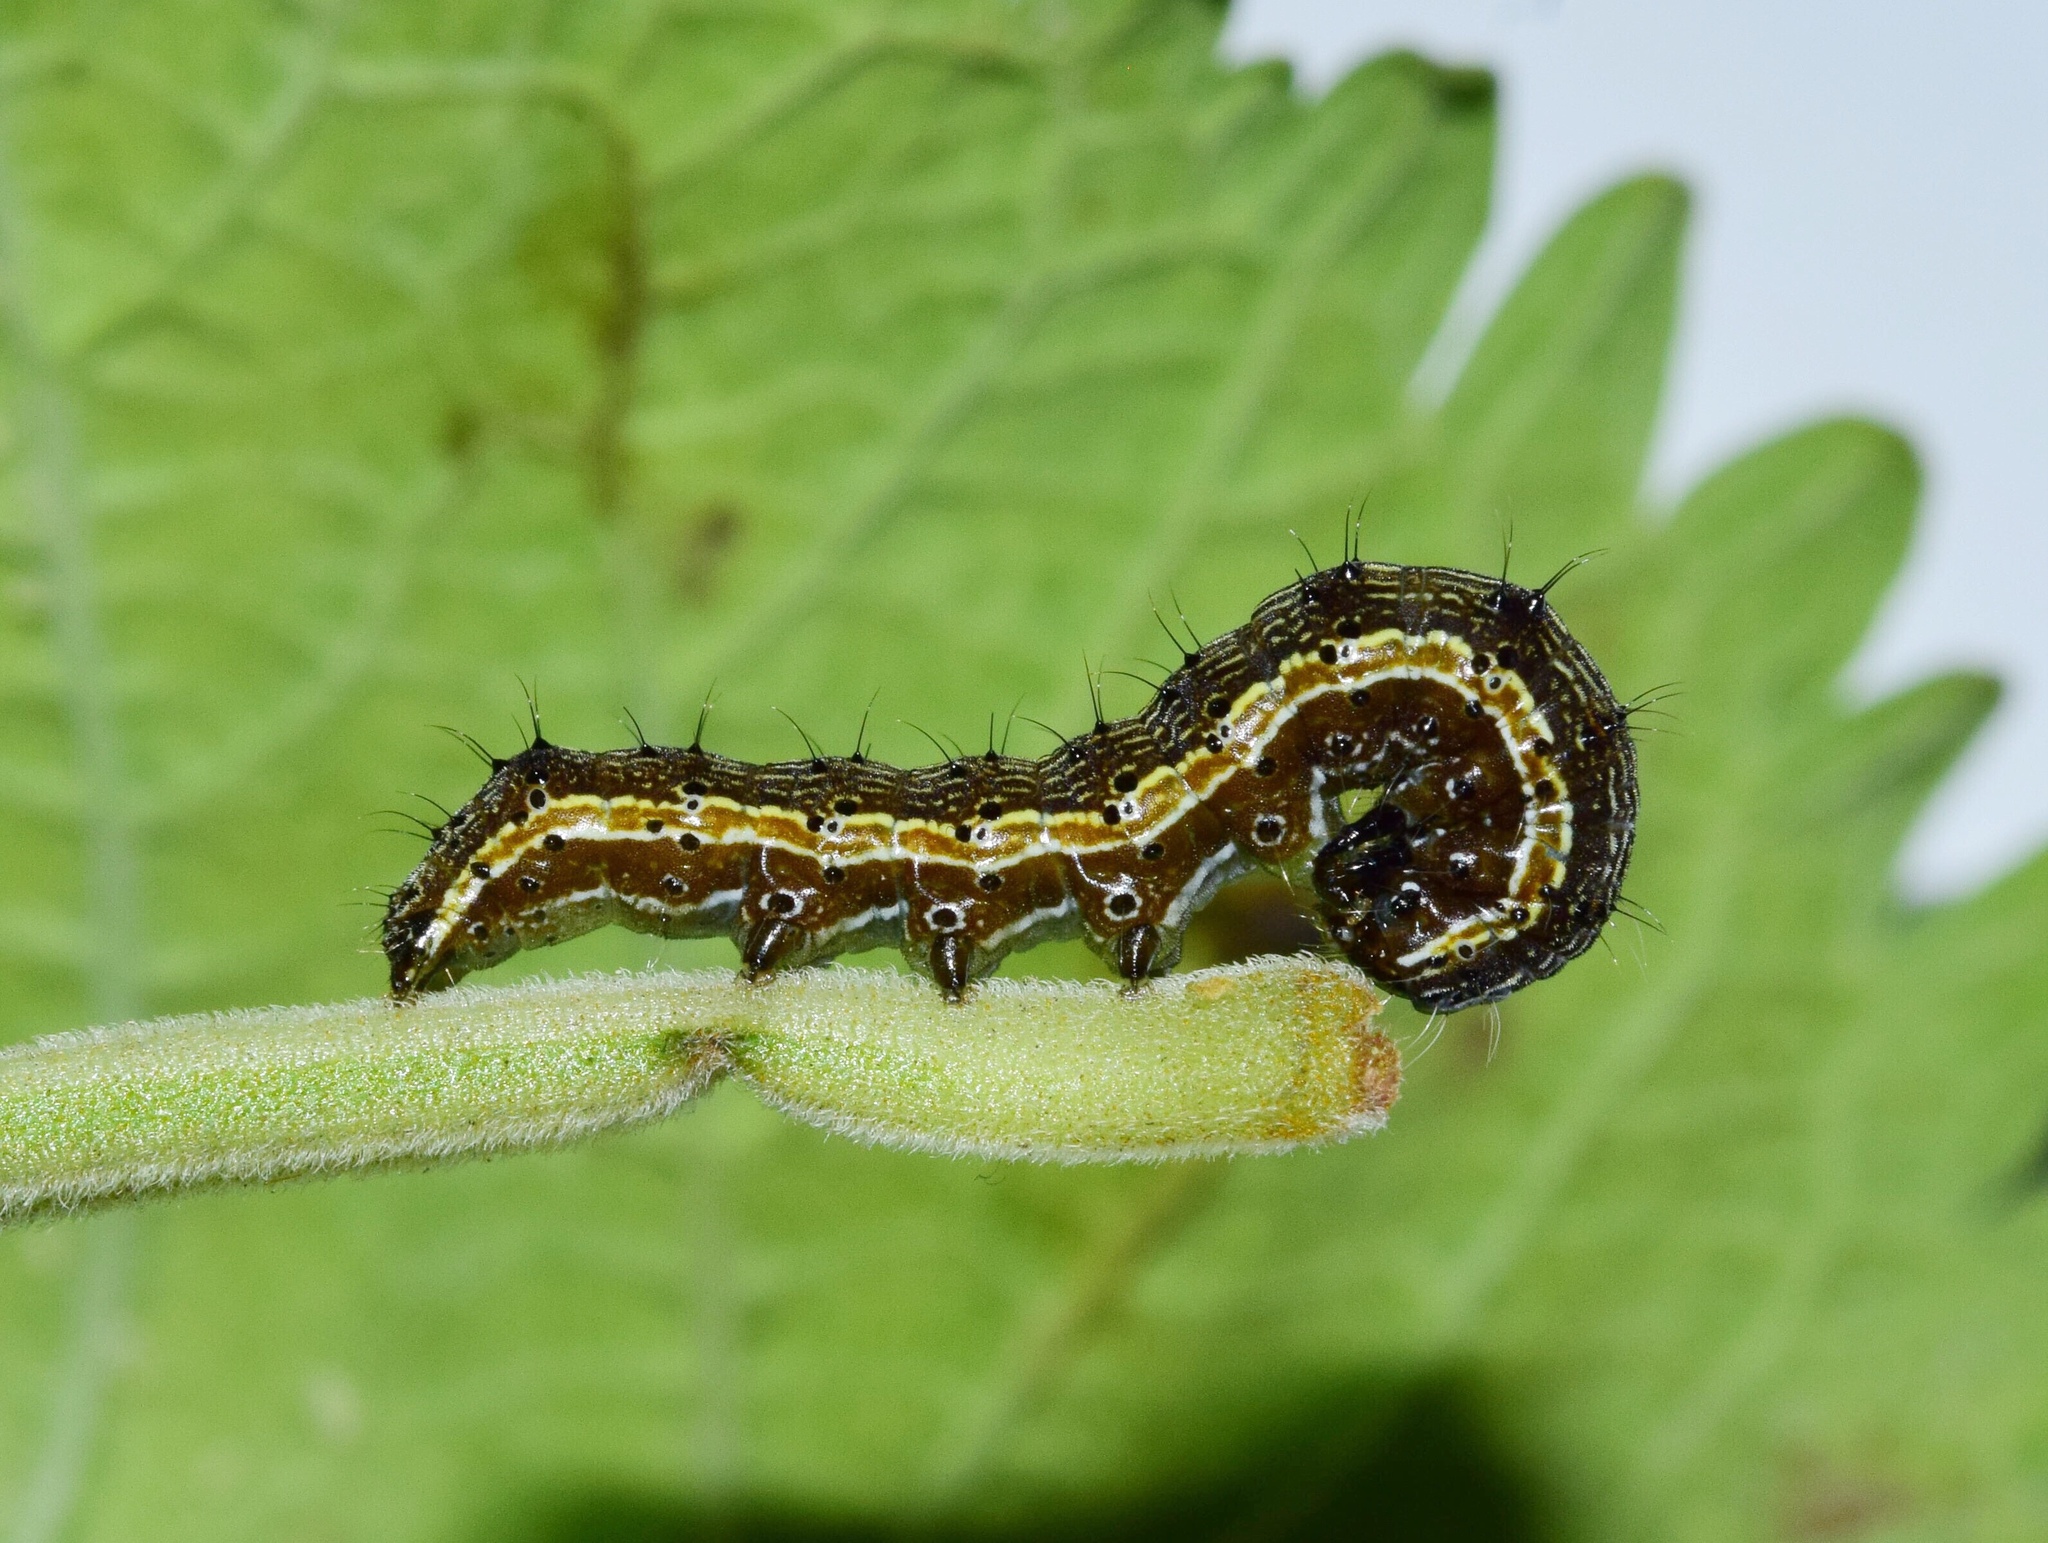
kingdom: Animalia
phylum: Arthropoda
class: Insecta
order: Lepidoptera
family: Noctuidae
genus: Helicoverpa
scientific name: Helicoverpa armigera
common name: Cotton bollworm
